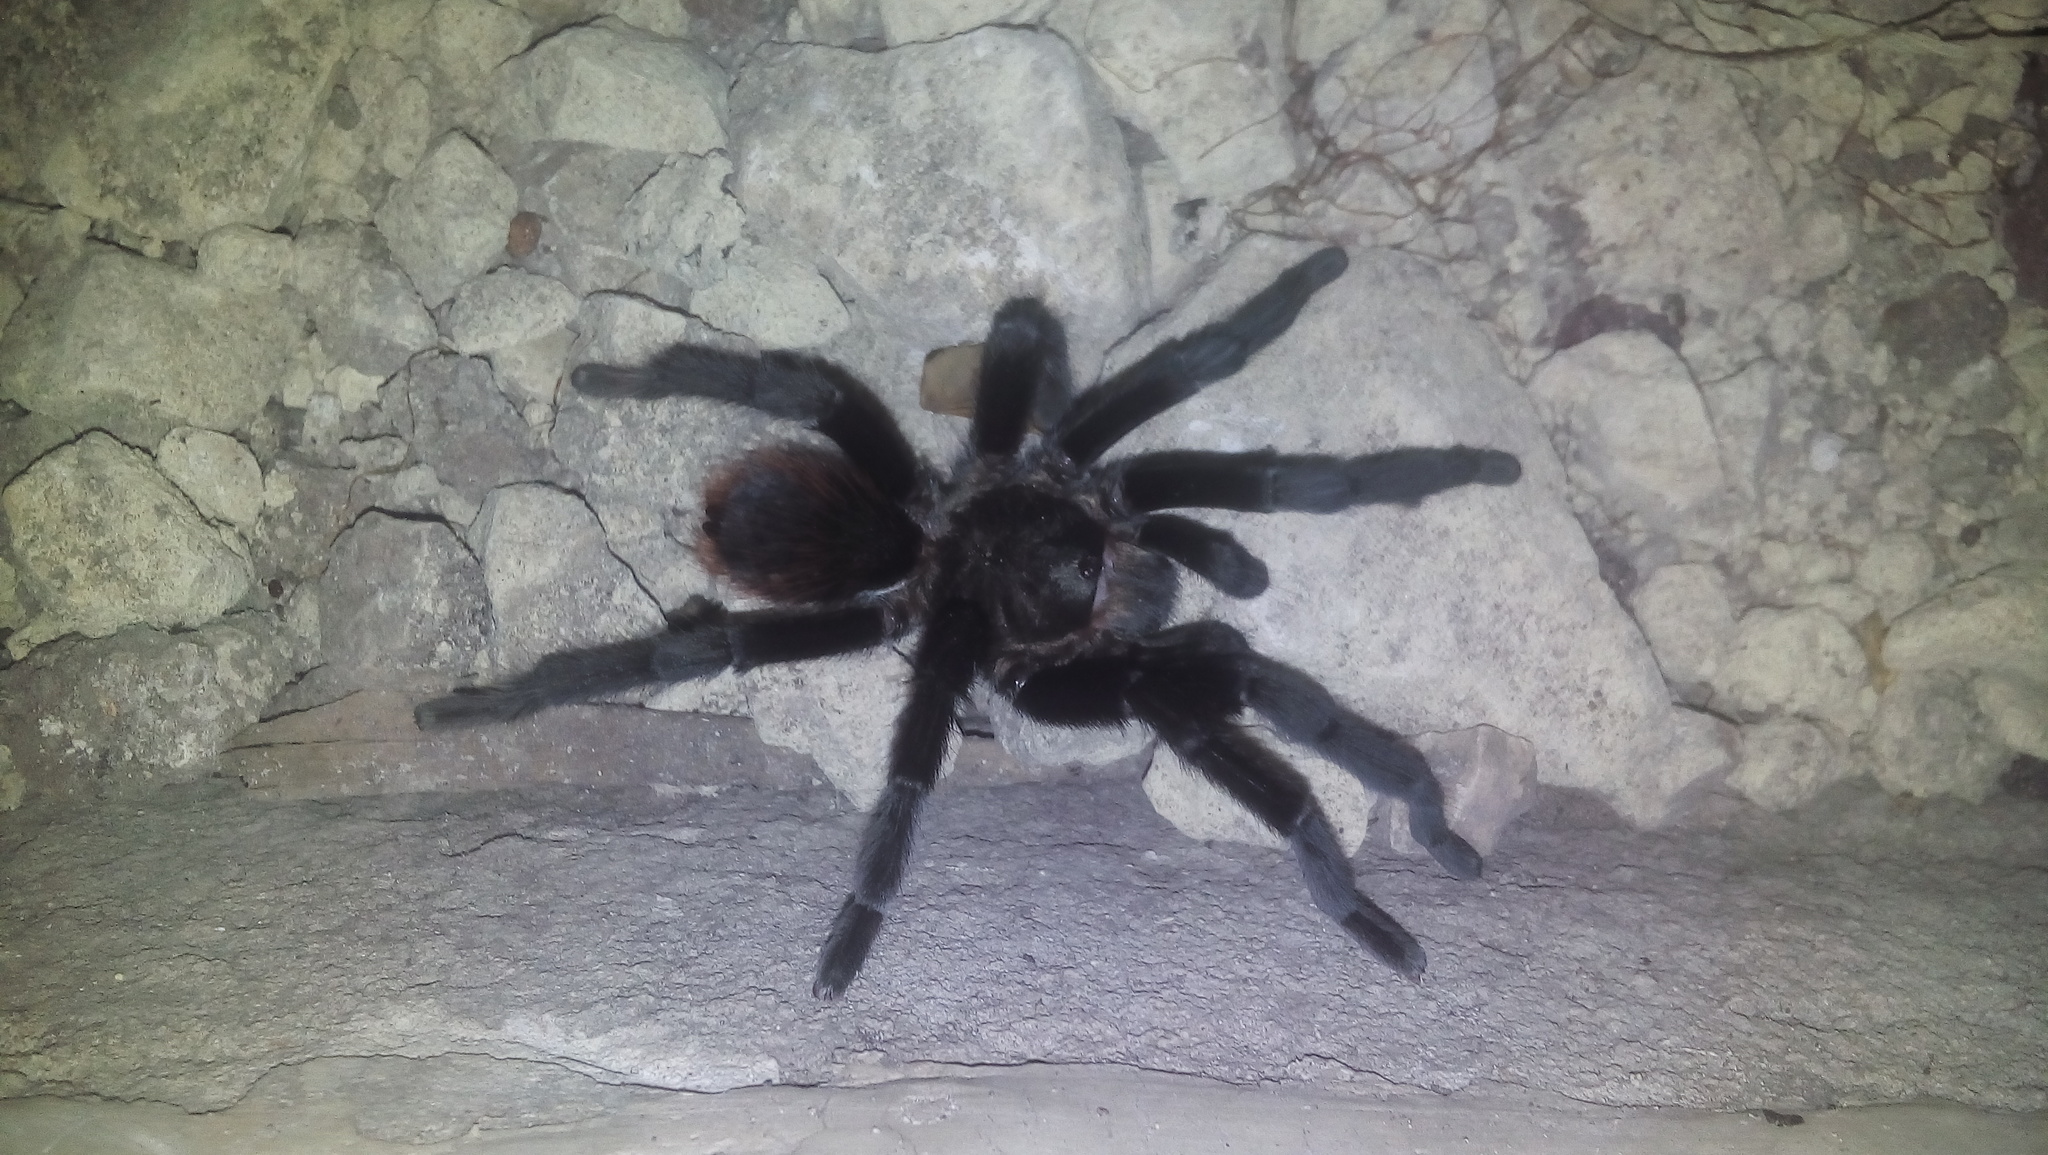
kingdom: Animalia
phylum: Arthropoda
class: Arachnida
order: Araneae
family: Theraphosidae
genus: Tliltocatl
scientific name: Tliltocatl kahlenbergi
